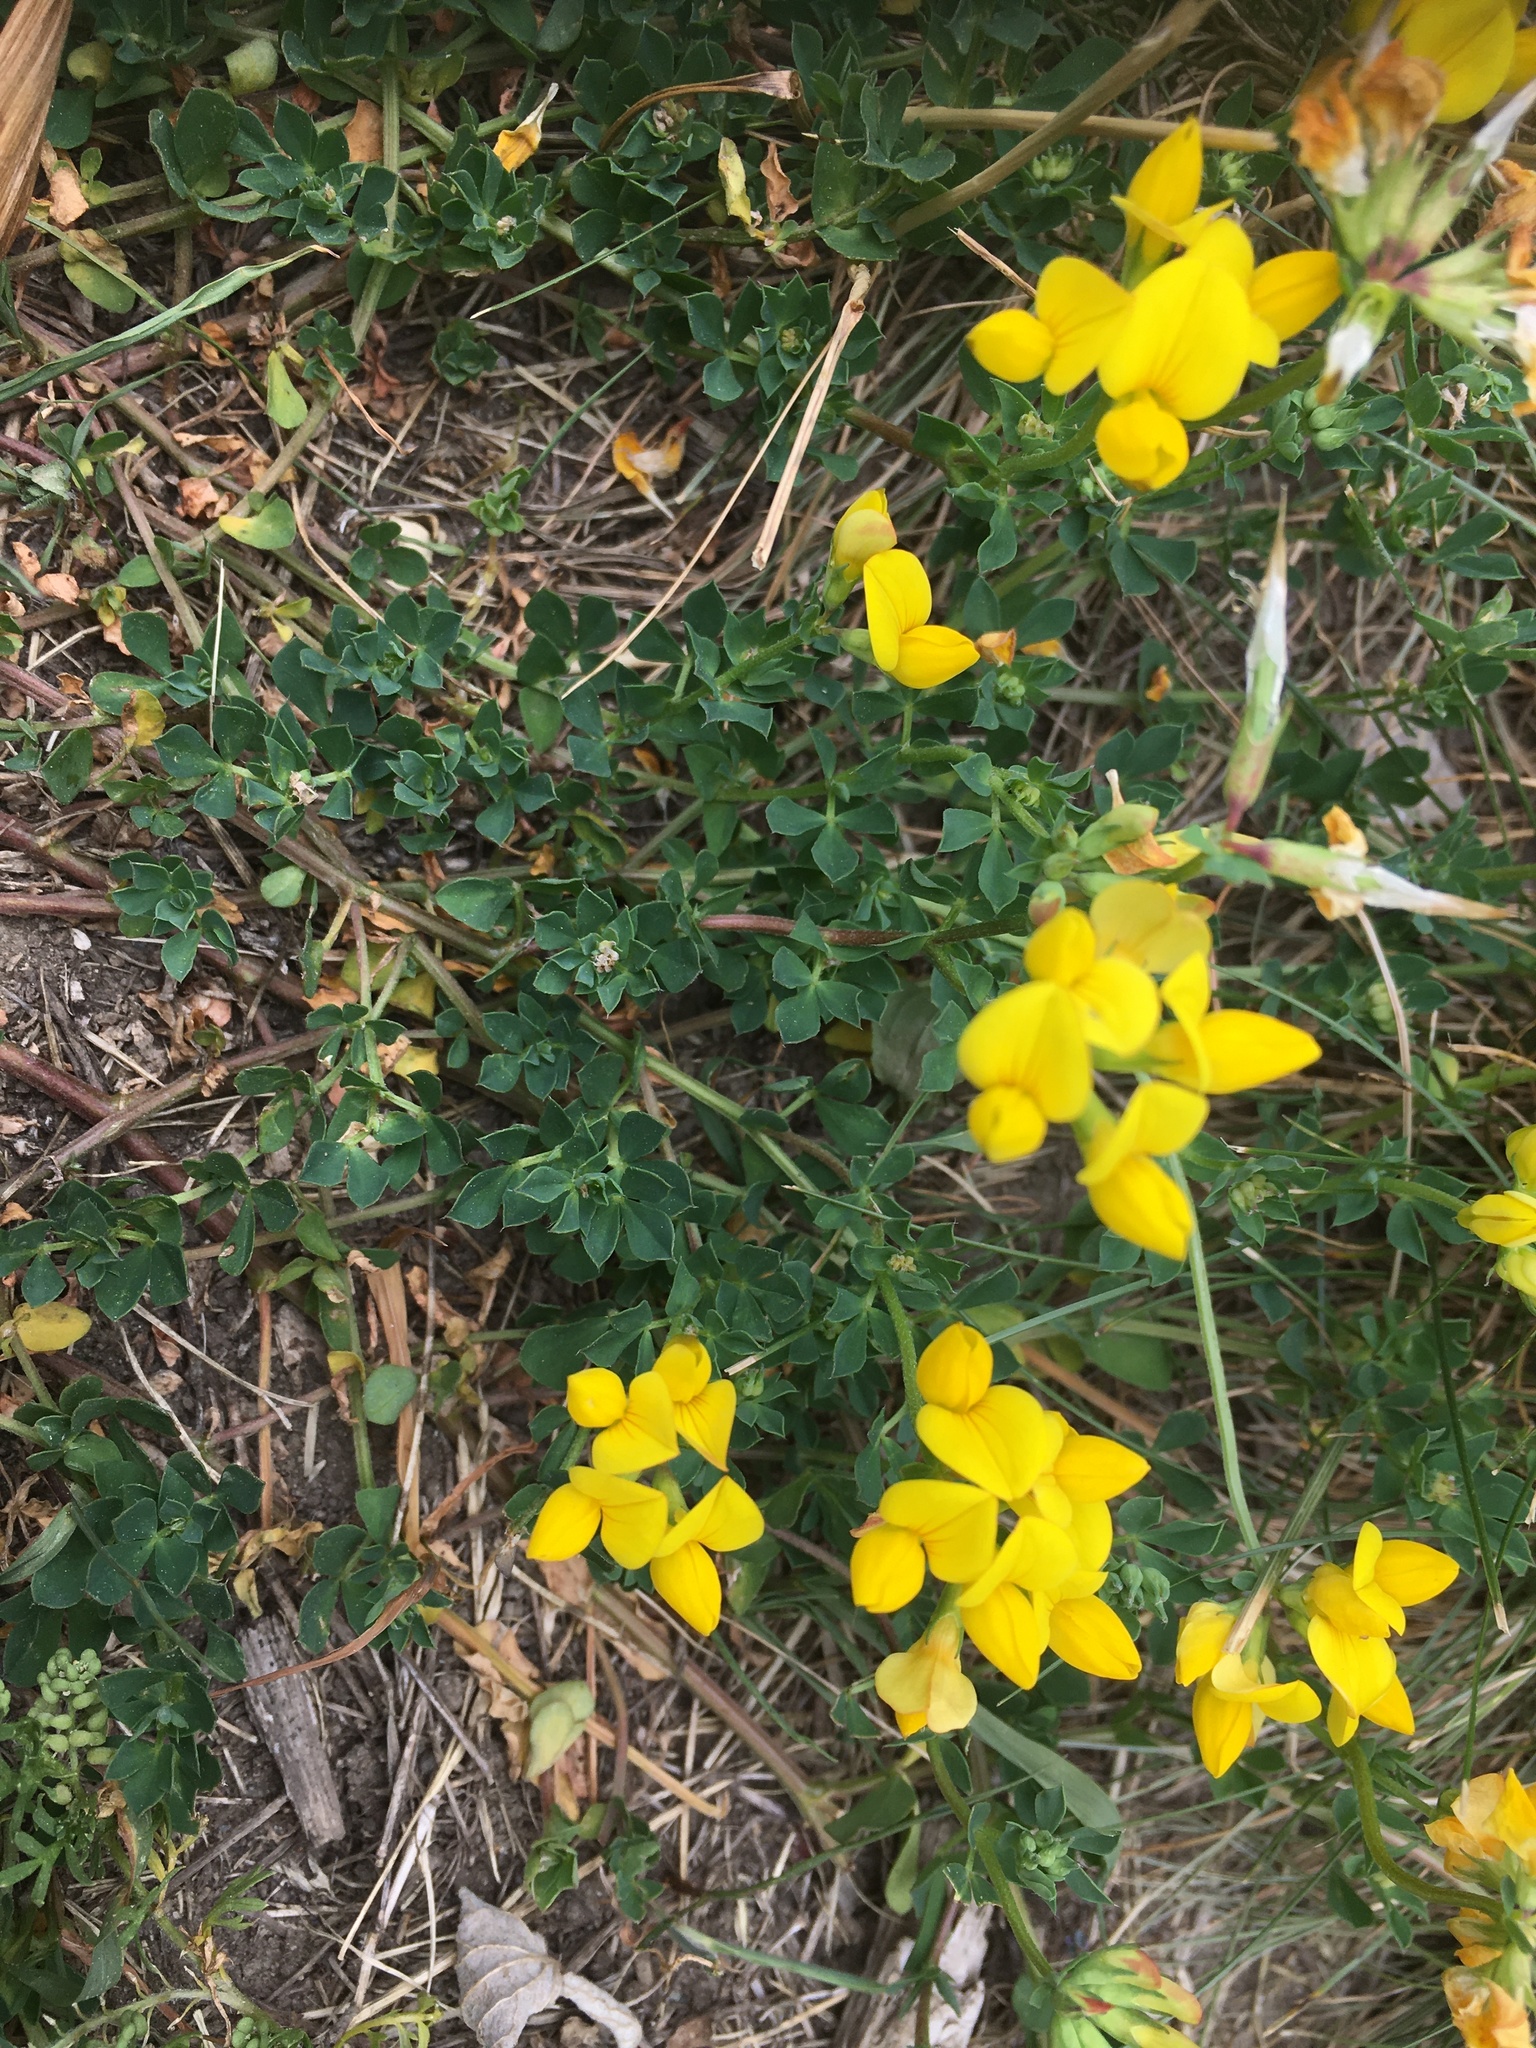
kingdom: Plantae
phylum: Tracheophyta
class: Magnoliopsida
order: Fabales
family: Fabaceae
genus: Lotus
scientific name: Lotus corniculatus
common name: Common bird's-foot-trefoil
